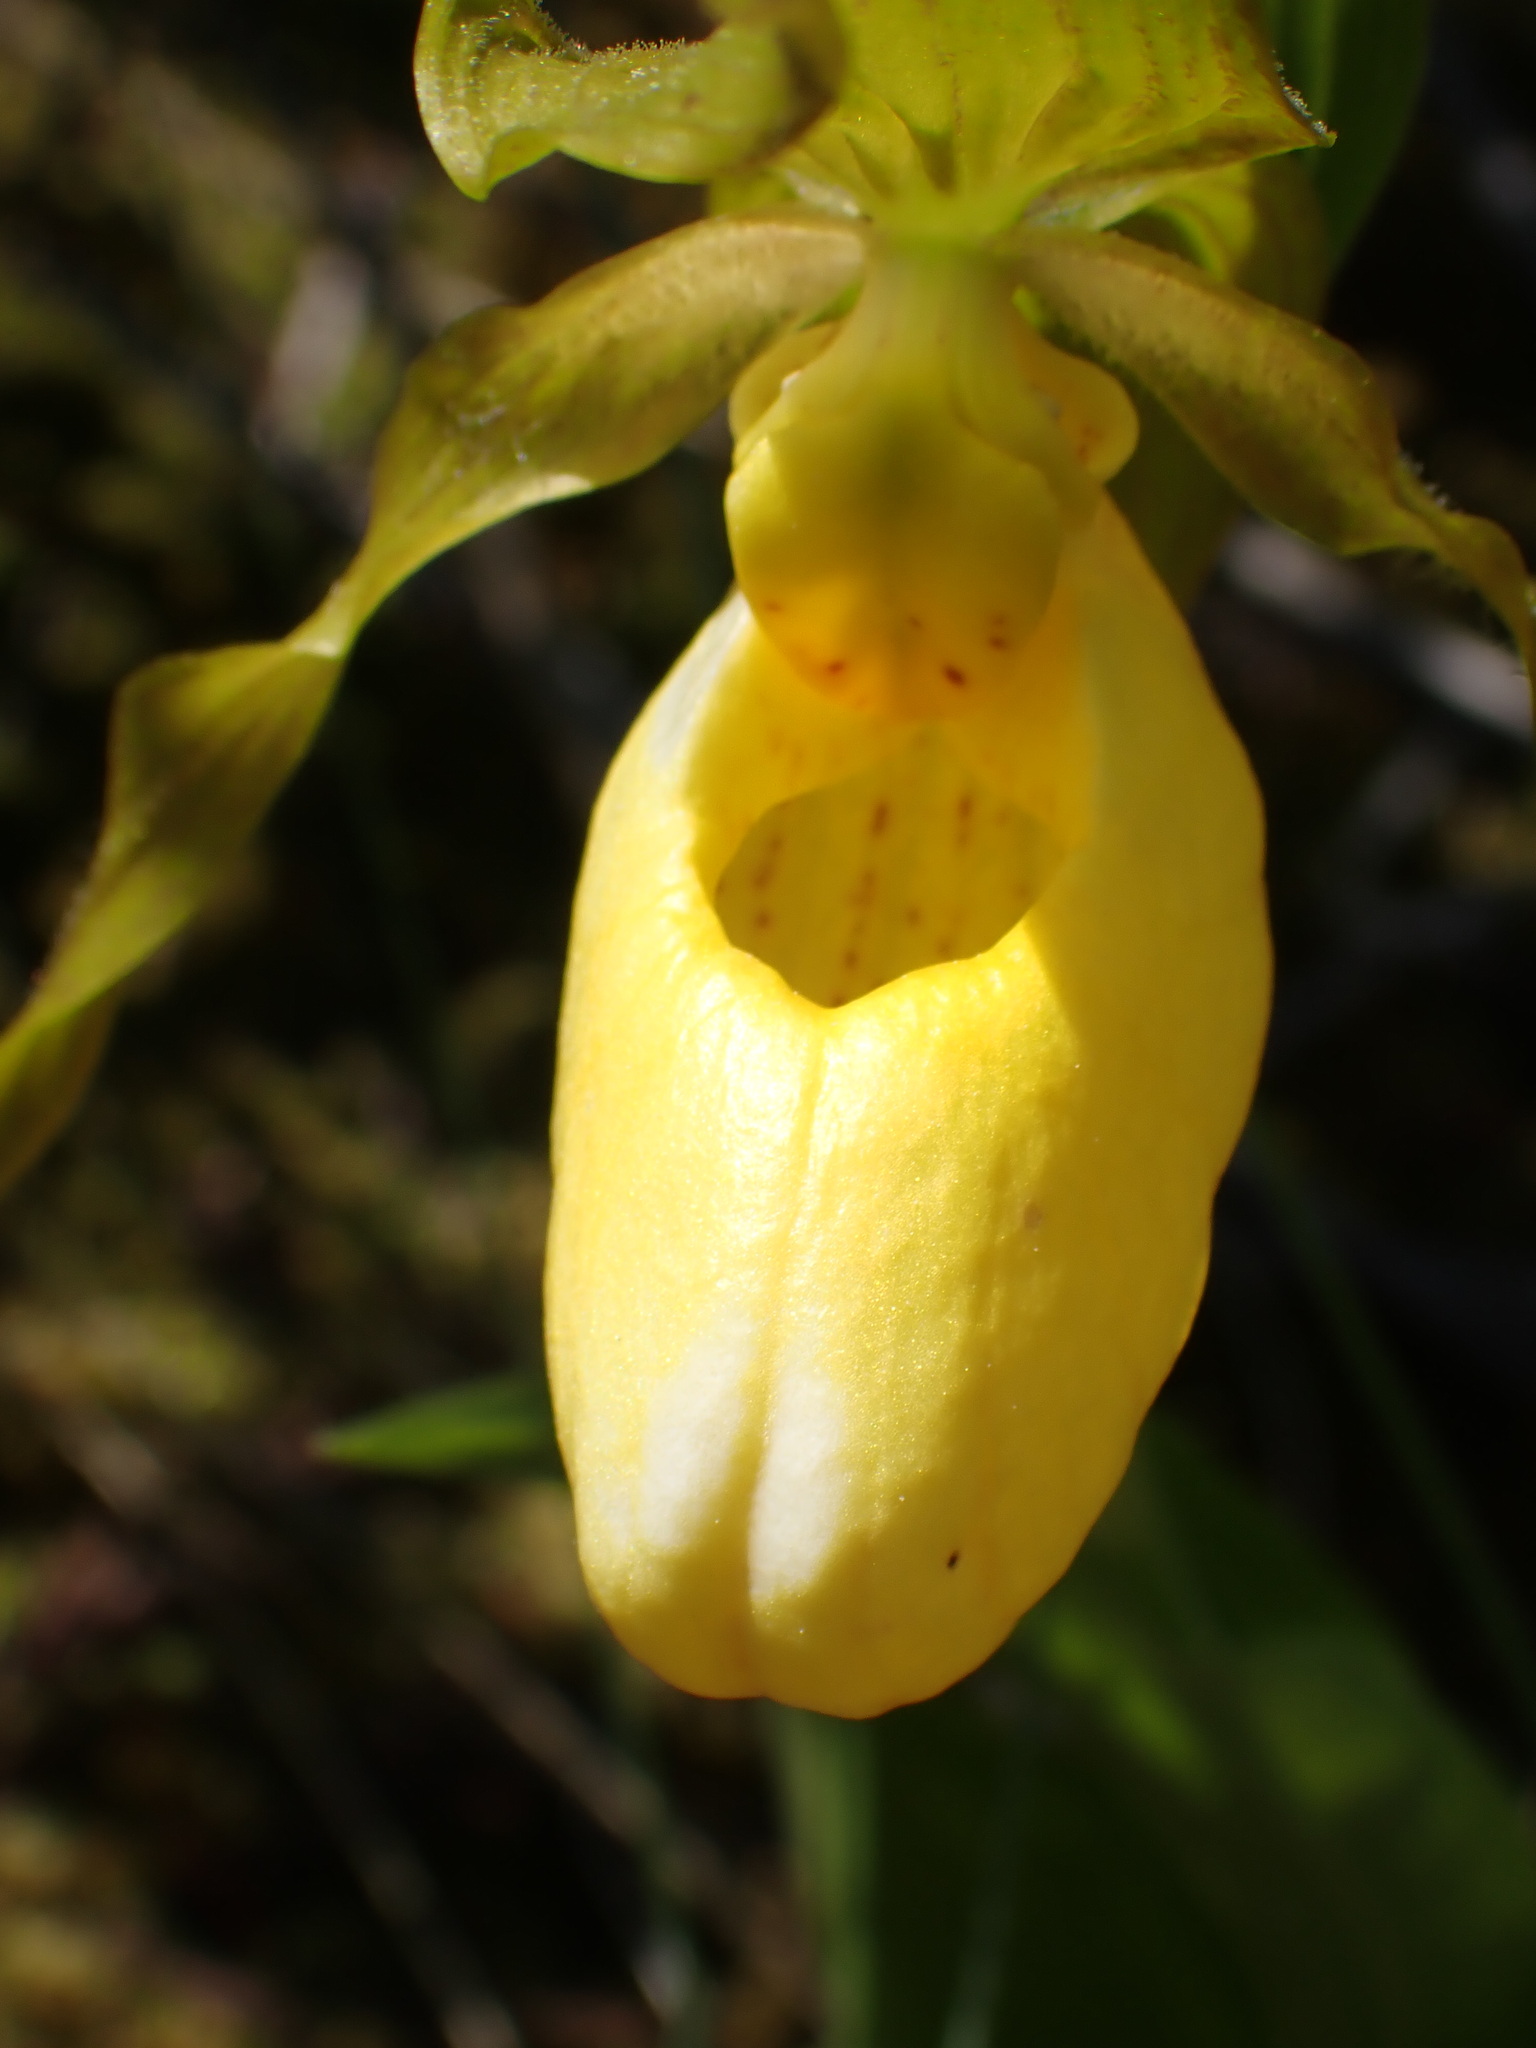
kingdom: Plantae
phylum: Tracheophyta
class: Liliopsida
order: Asparagales
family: Orchidaceae
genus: Cypripedium
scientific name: Cypripedium parviflorum
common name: American yellow lady's-slipper
